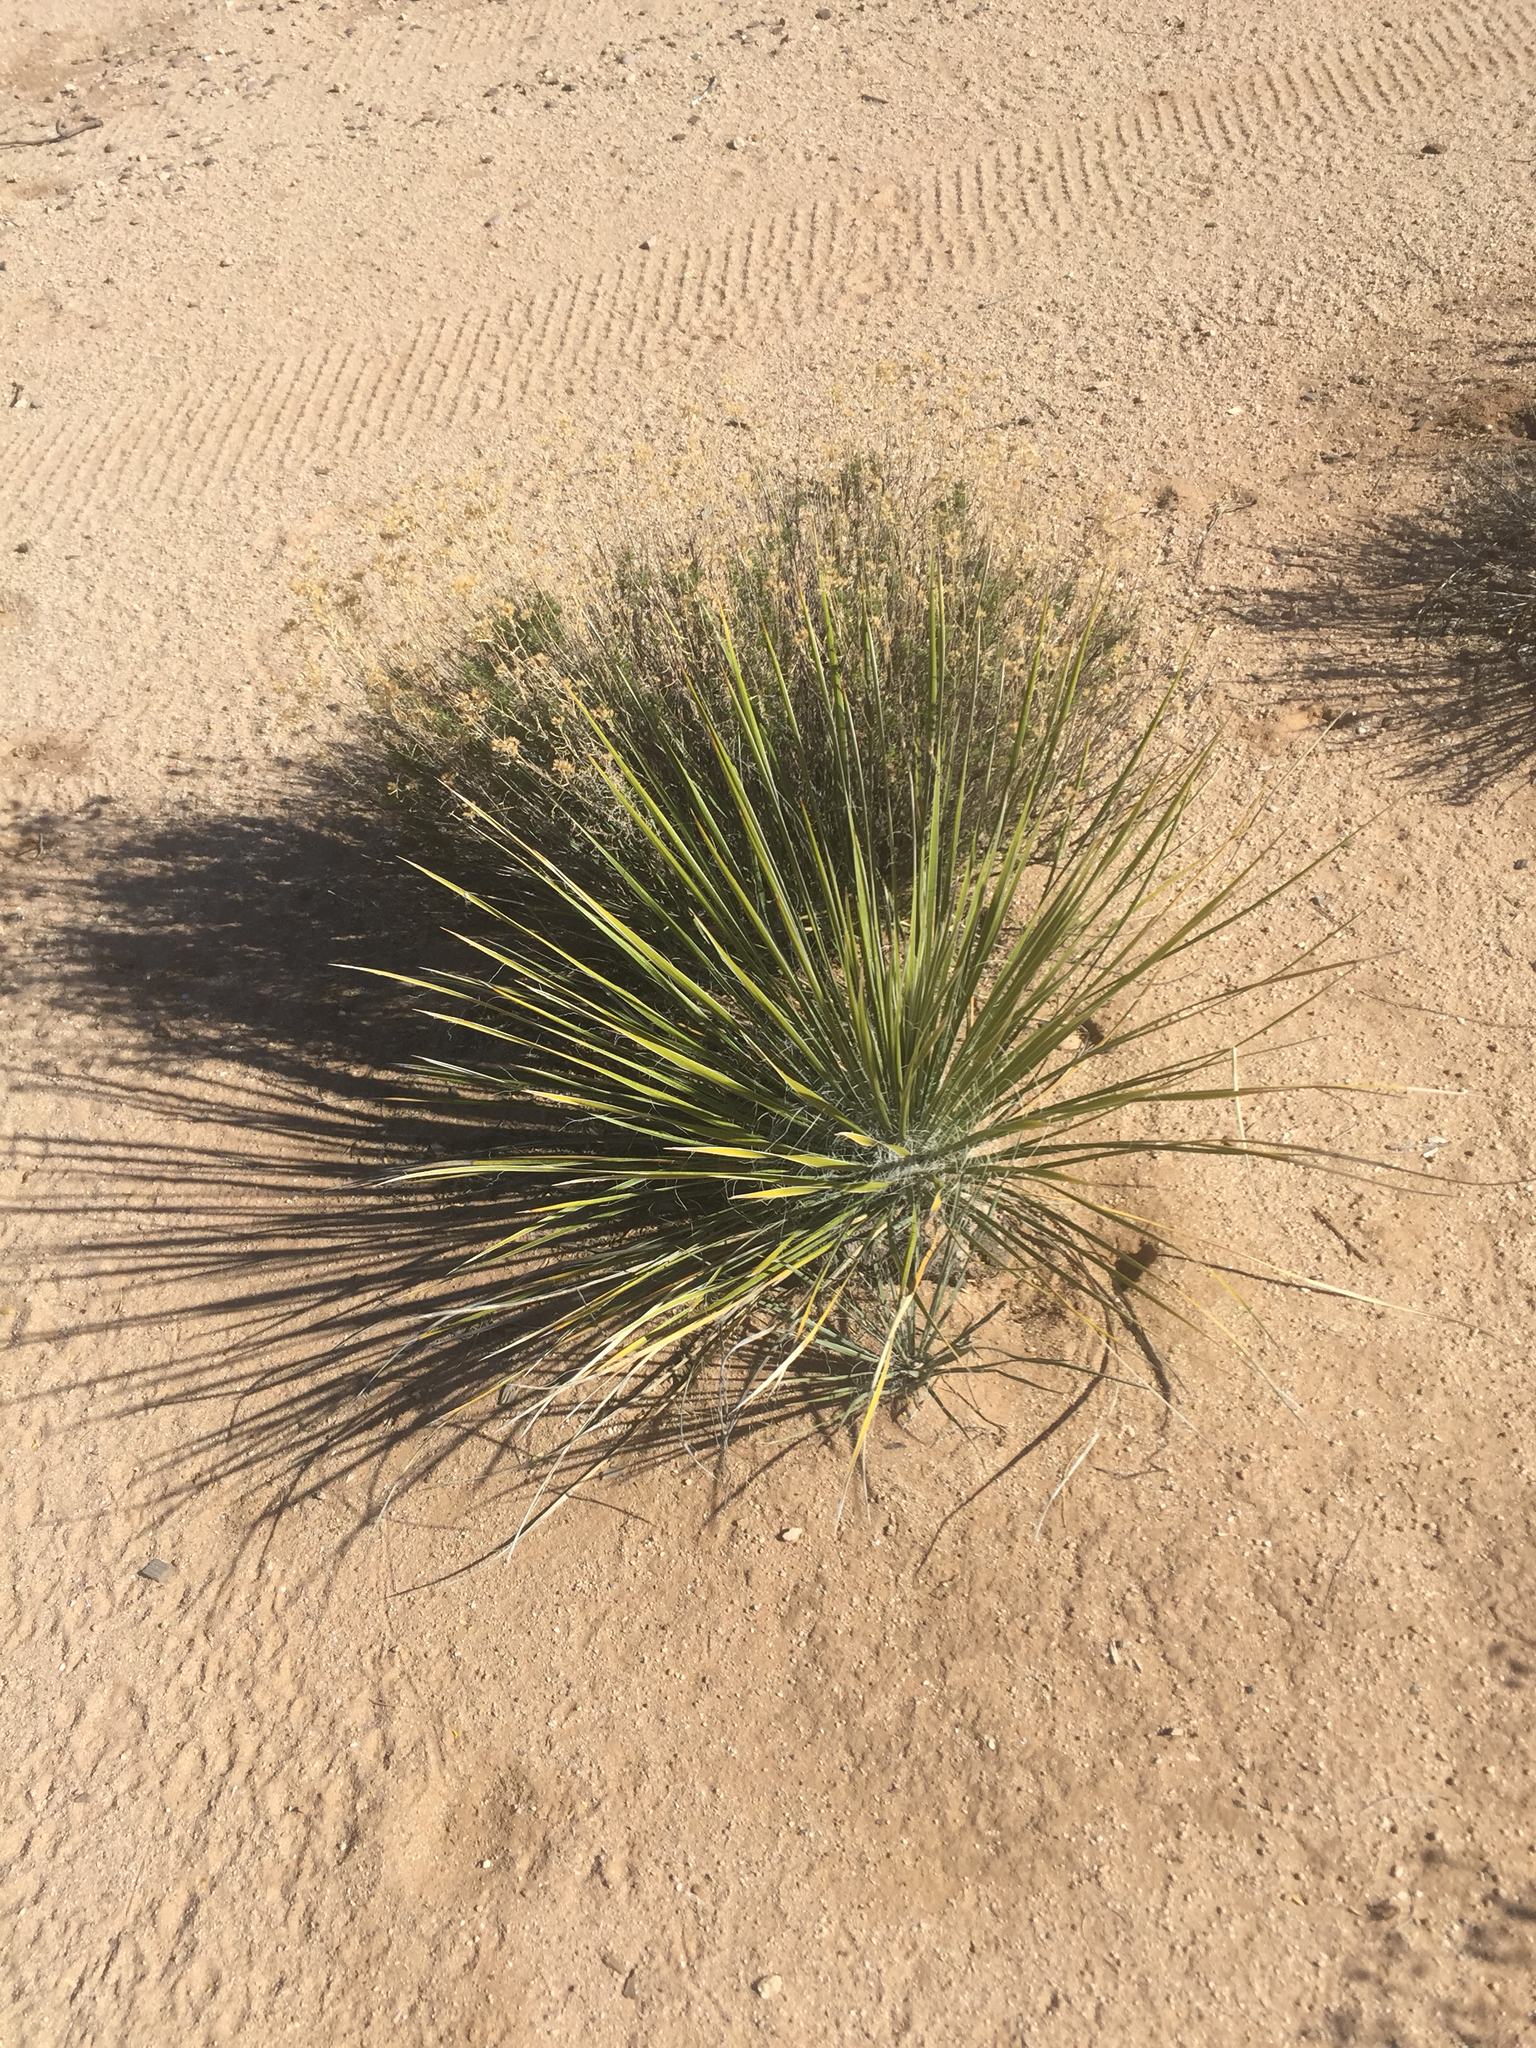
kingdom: Plantae
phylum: Tracheophyta
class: Liliopsida
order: Asparagales
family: Asparagaceae
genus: Yucca
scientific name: Yucca elata
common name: Palmella
